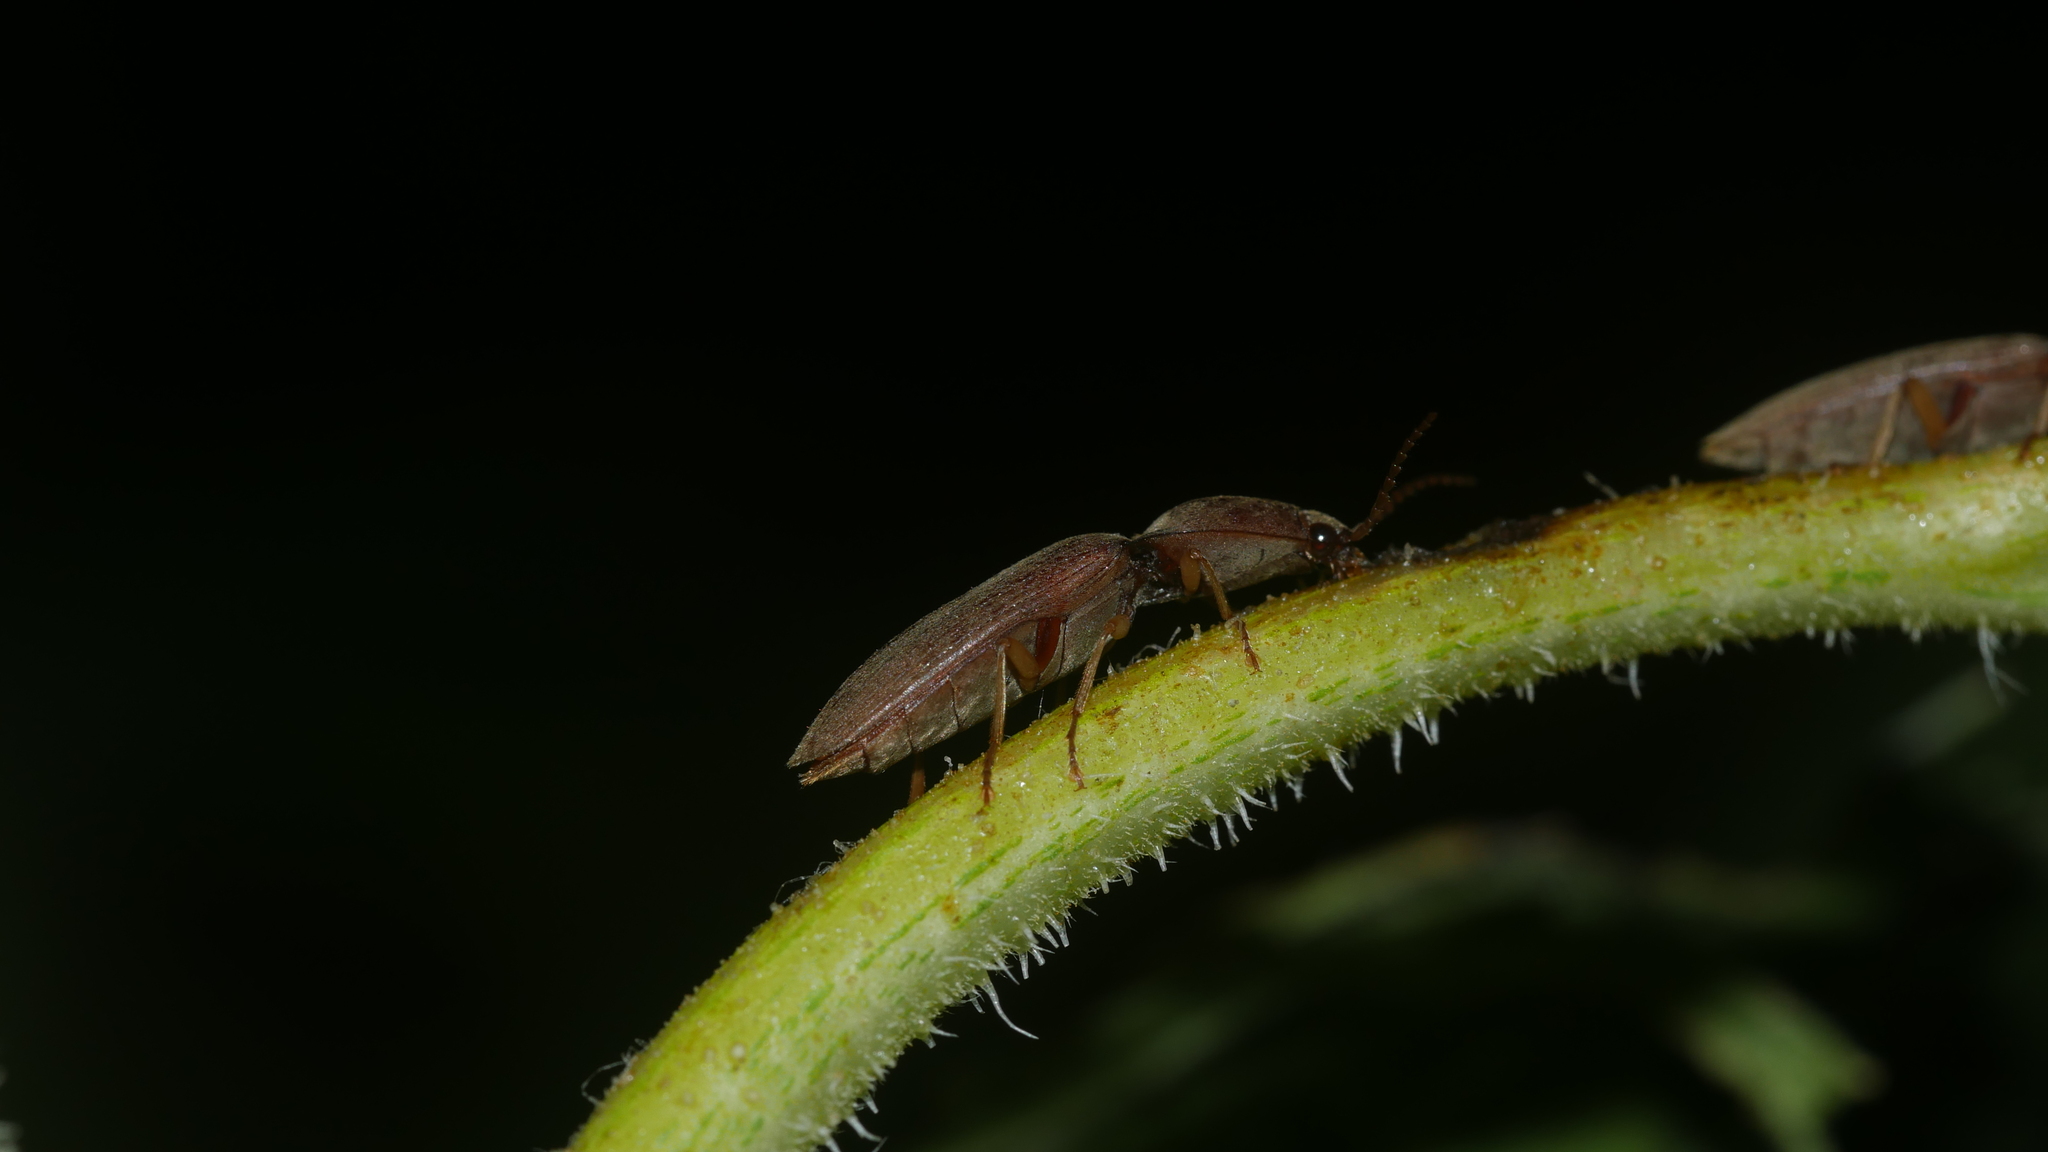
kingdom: Animalia
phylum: Arthropoda
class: Insecta
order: Coleoptera
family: Elateridae
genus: Monocrepidius
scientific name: Monocrepidius lividus
